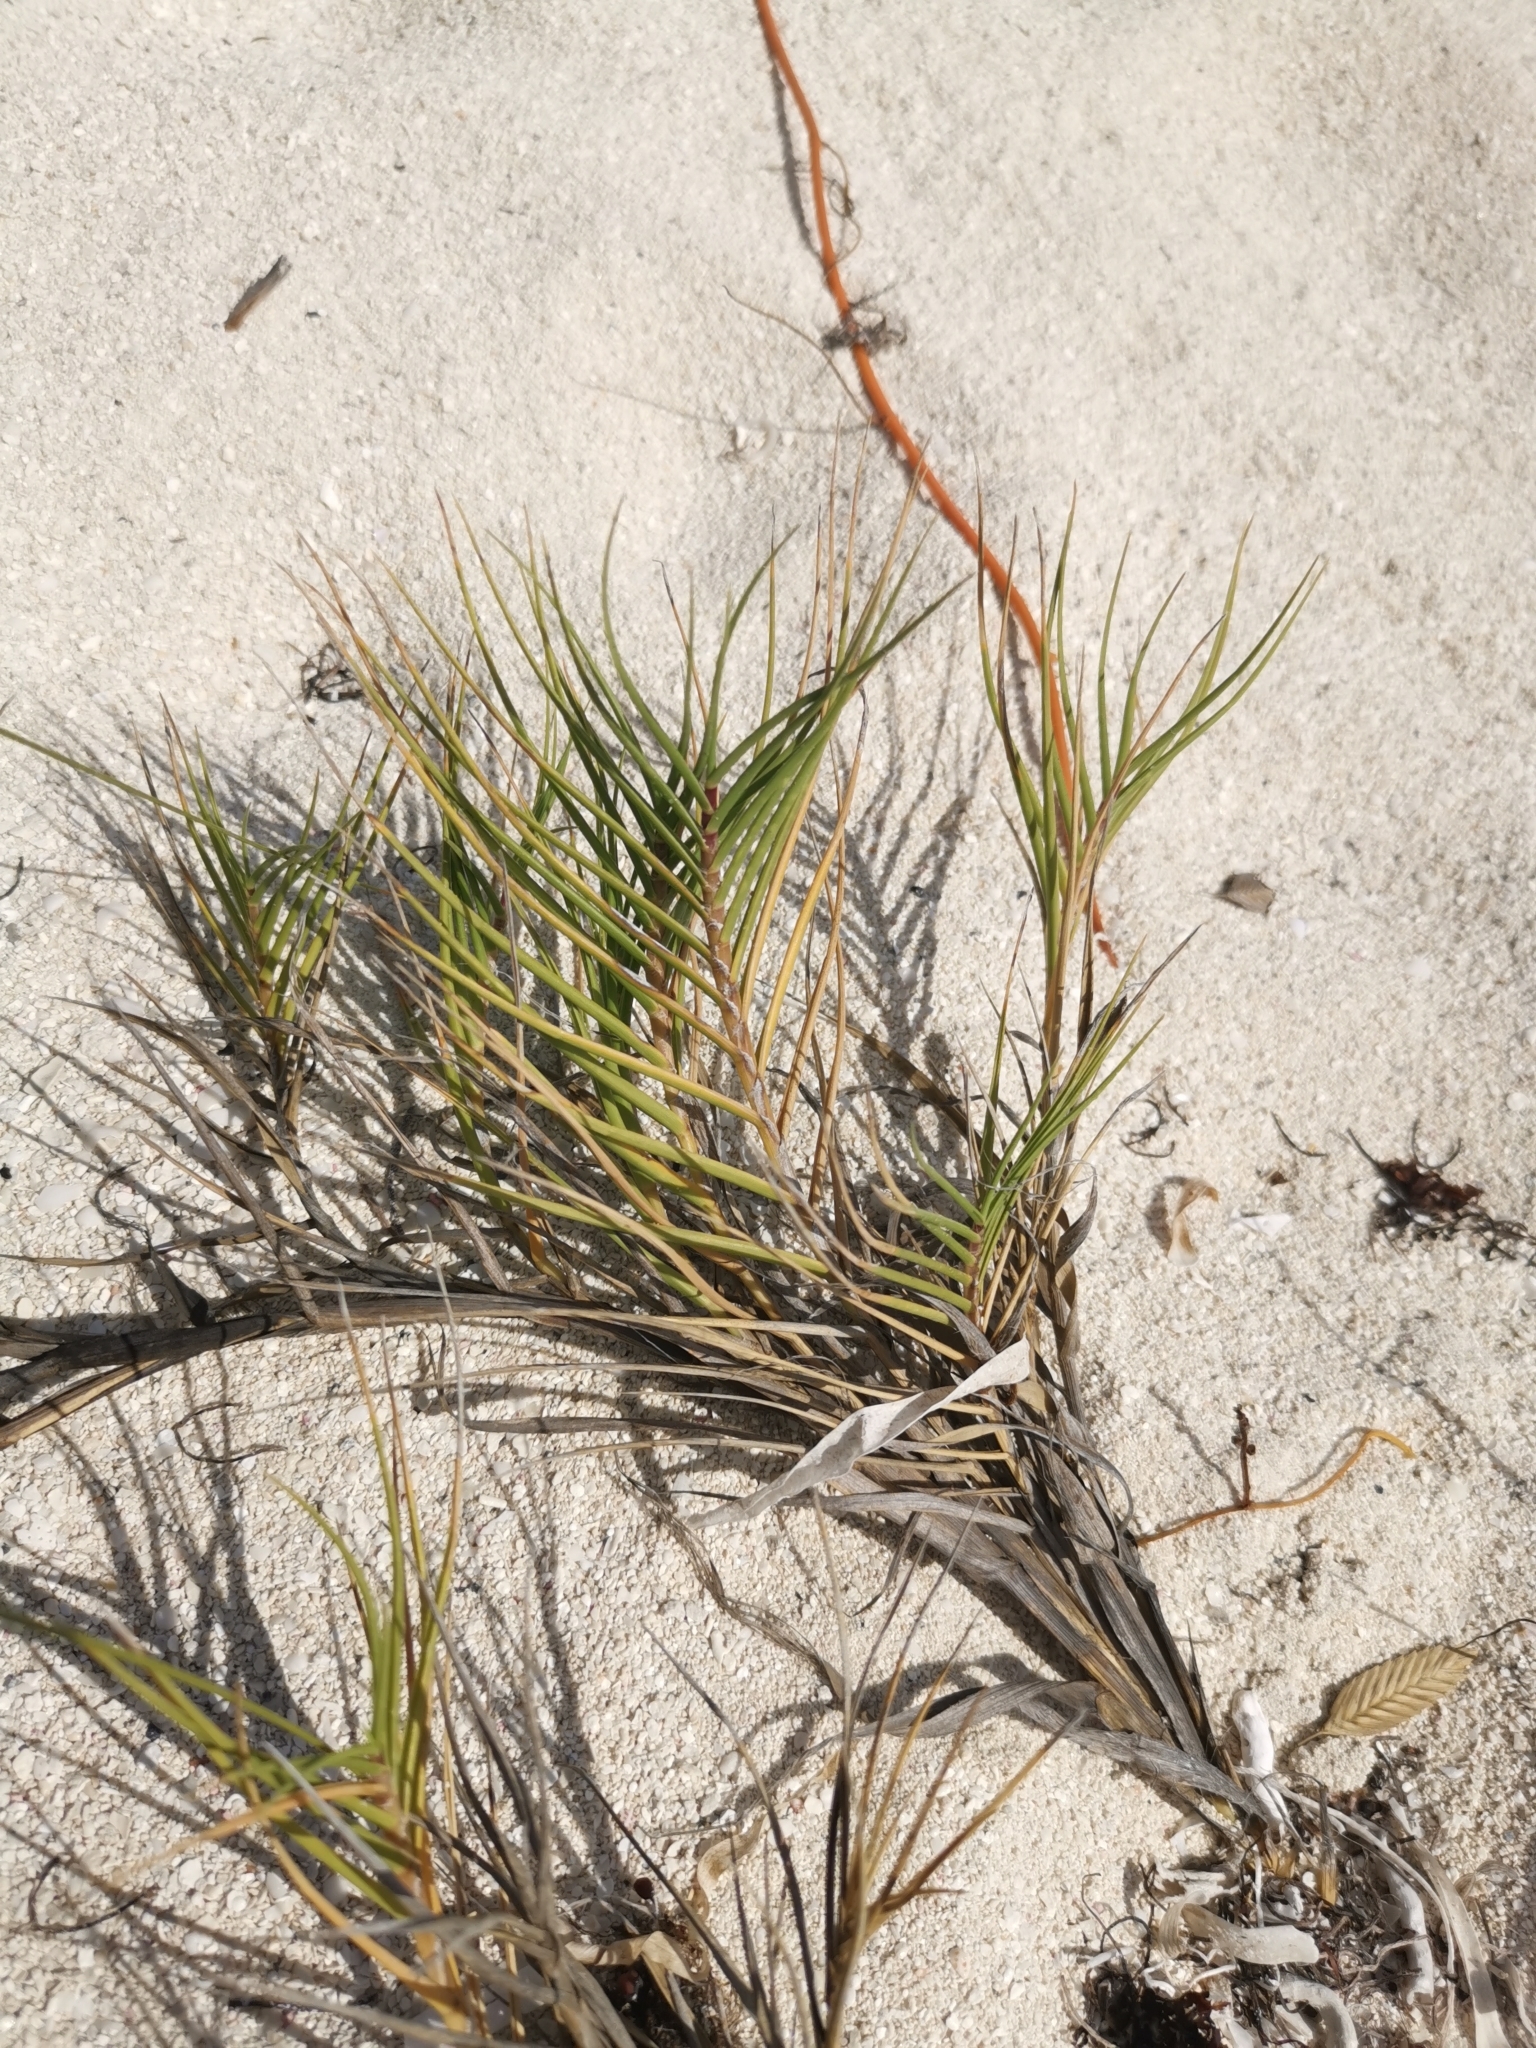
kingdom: Plantae
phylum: Tracheophyta
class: Liliopsida
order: Poales
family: Poaceae
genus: Distichlis
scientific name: Distichlis spicata
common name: Saltgrass
